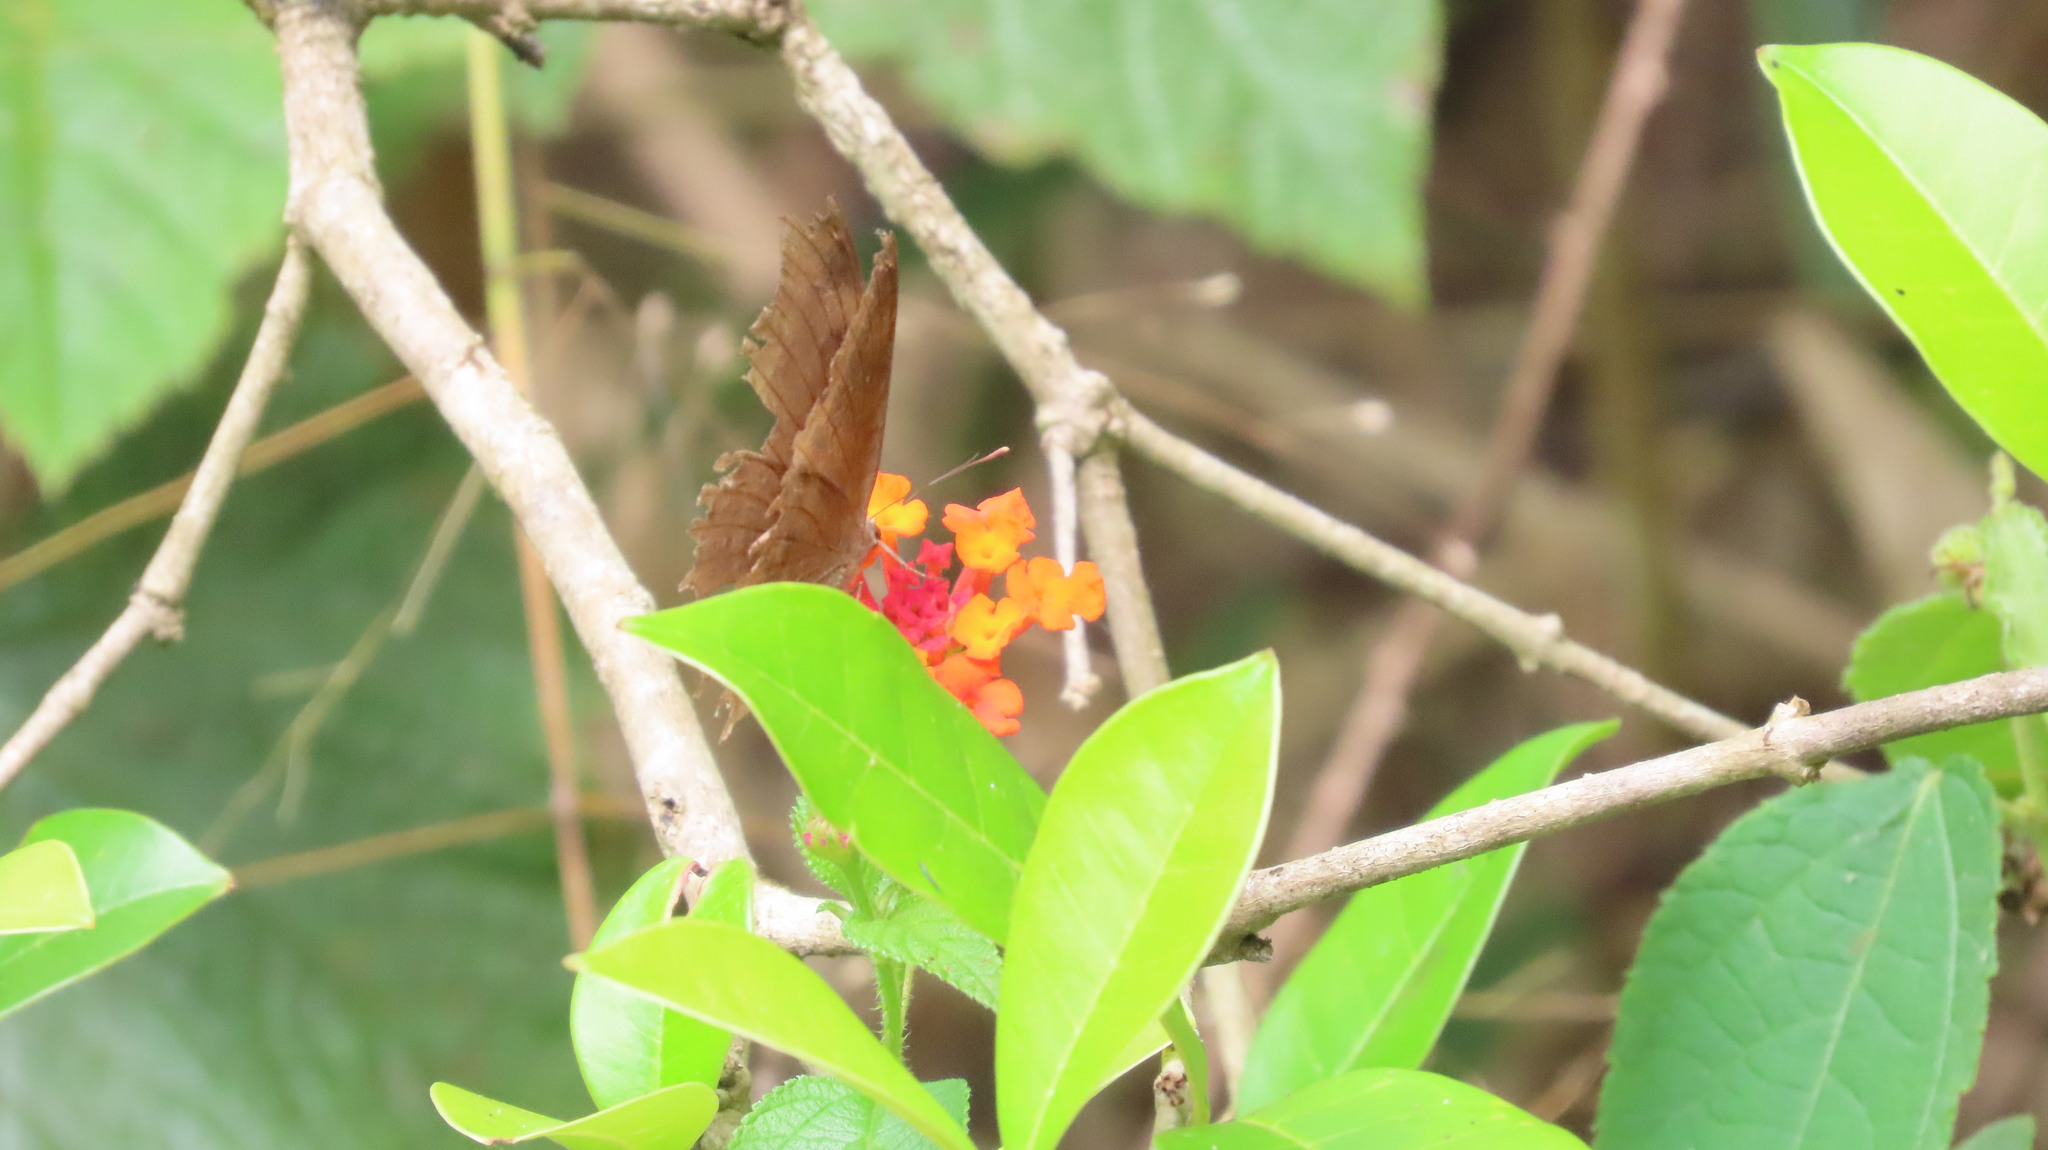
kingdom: Animalia
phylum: Arthropoda
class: Insecta
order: Lepidoptera
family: Nymphalidae
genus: Junonia
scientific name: Junonia iphita
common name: Chocolate pansy
